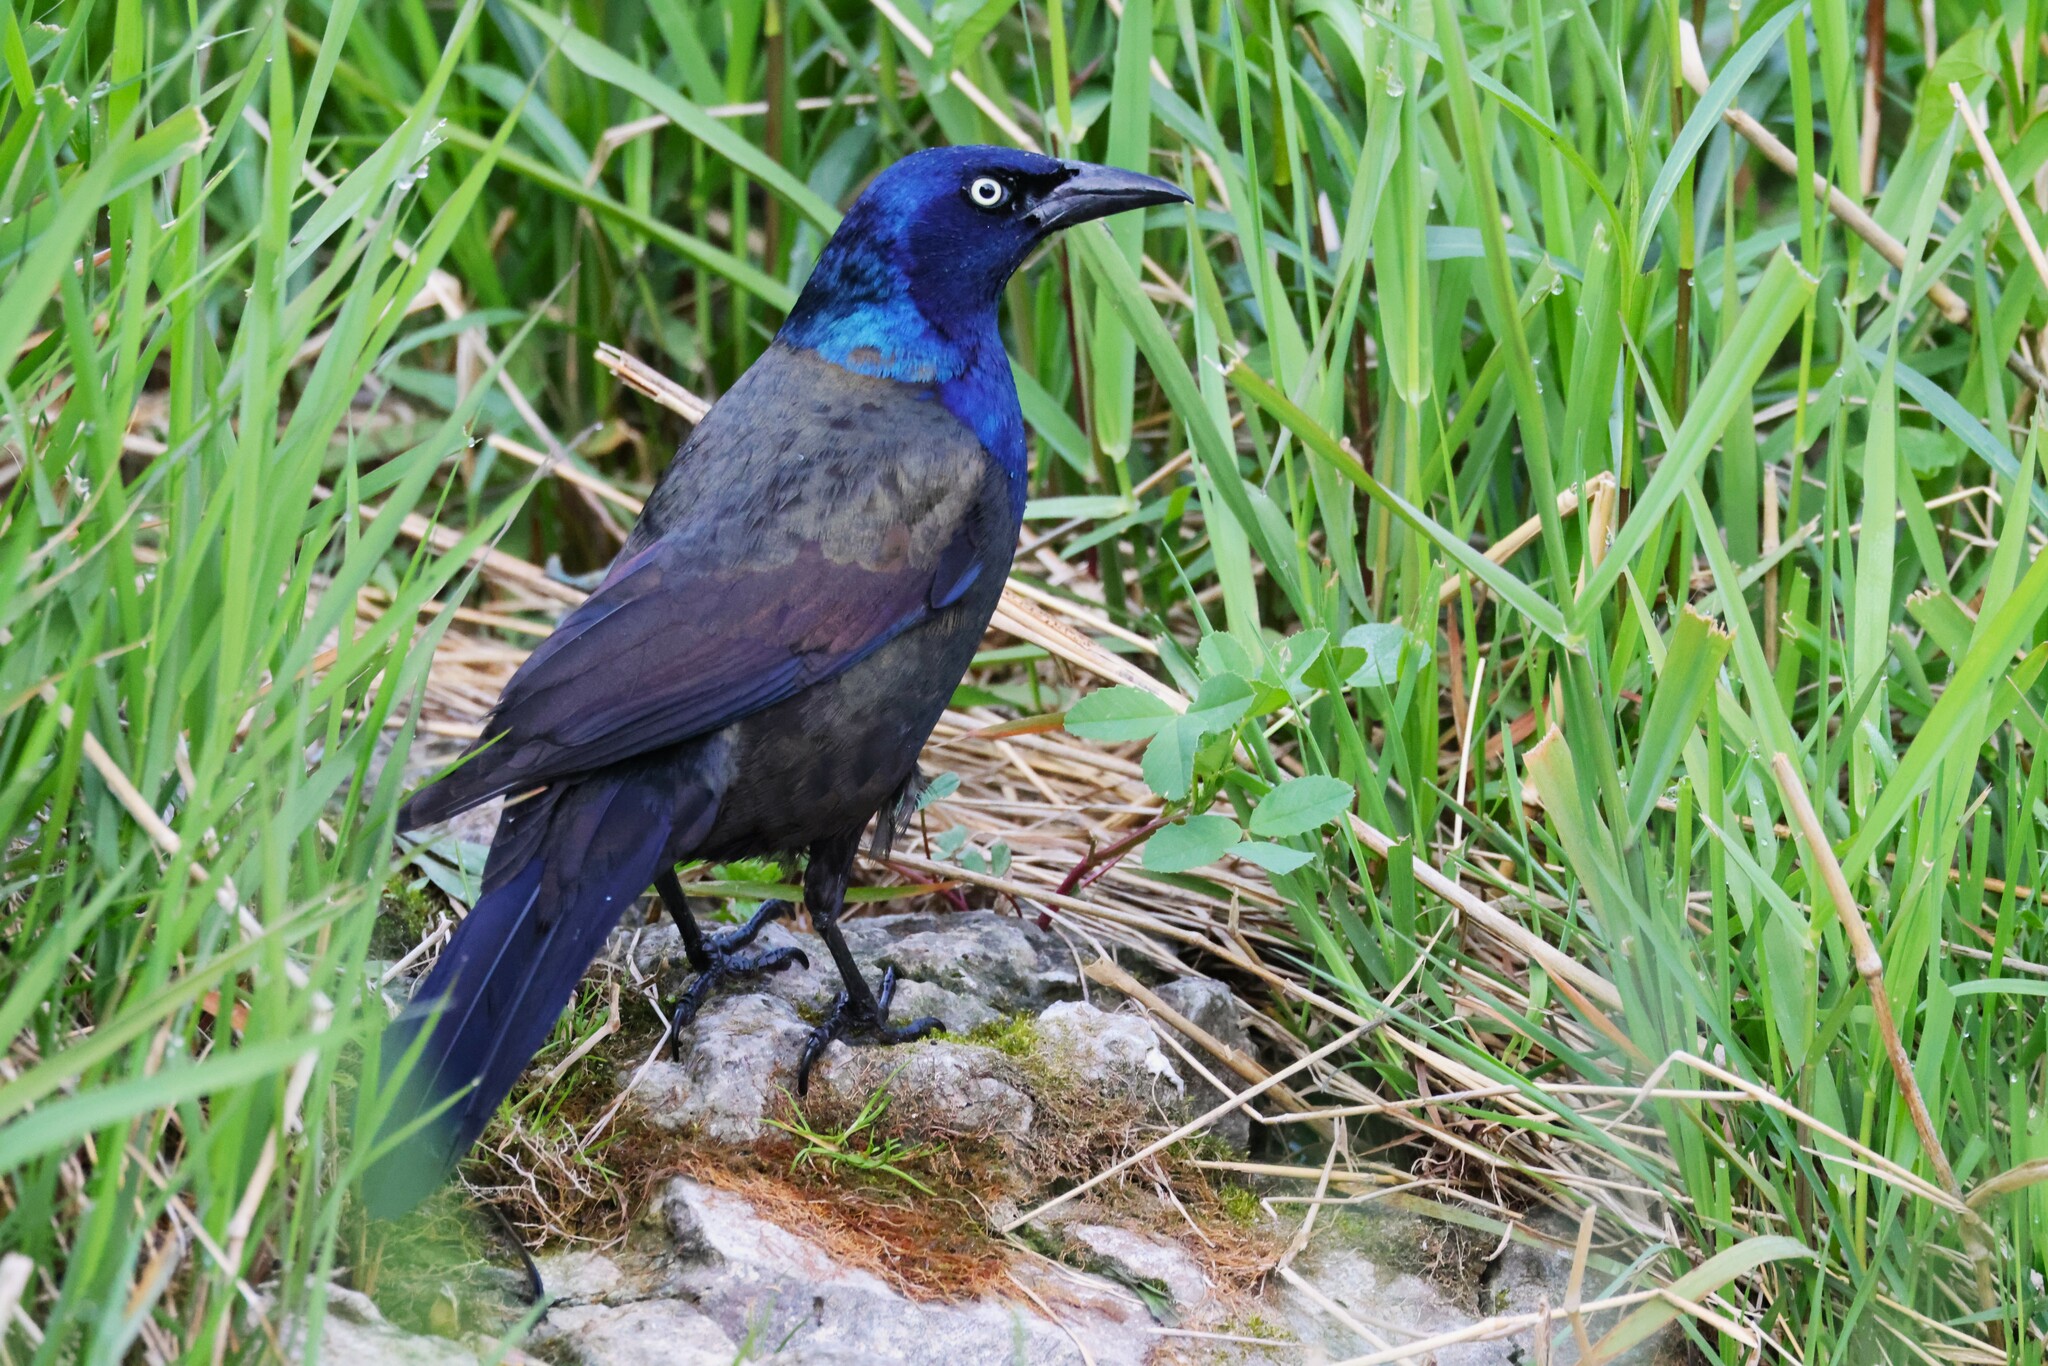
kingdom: Animalia
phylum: Chordata
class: Aves
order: Passeriformes
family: Icteridae
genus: Quiscalus
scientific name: Quiscalus quiscula
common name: Common grackle
